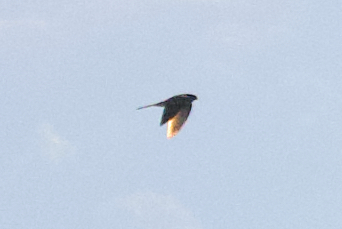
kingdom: Animalia
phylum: Chordata
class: Aves
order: Accipitriformes
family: Accipitridae
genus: Accipiter
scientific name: Accipiter nisus
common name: Eurasian sparrowhawk
